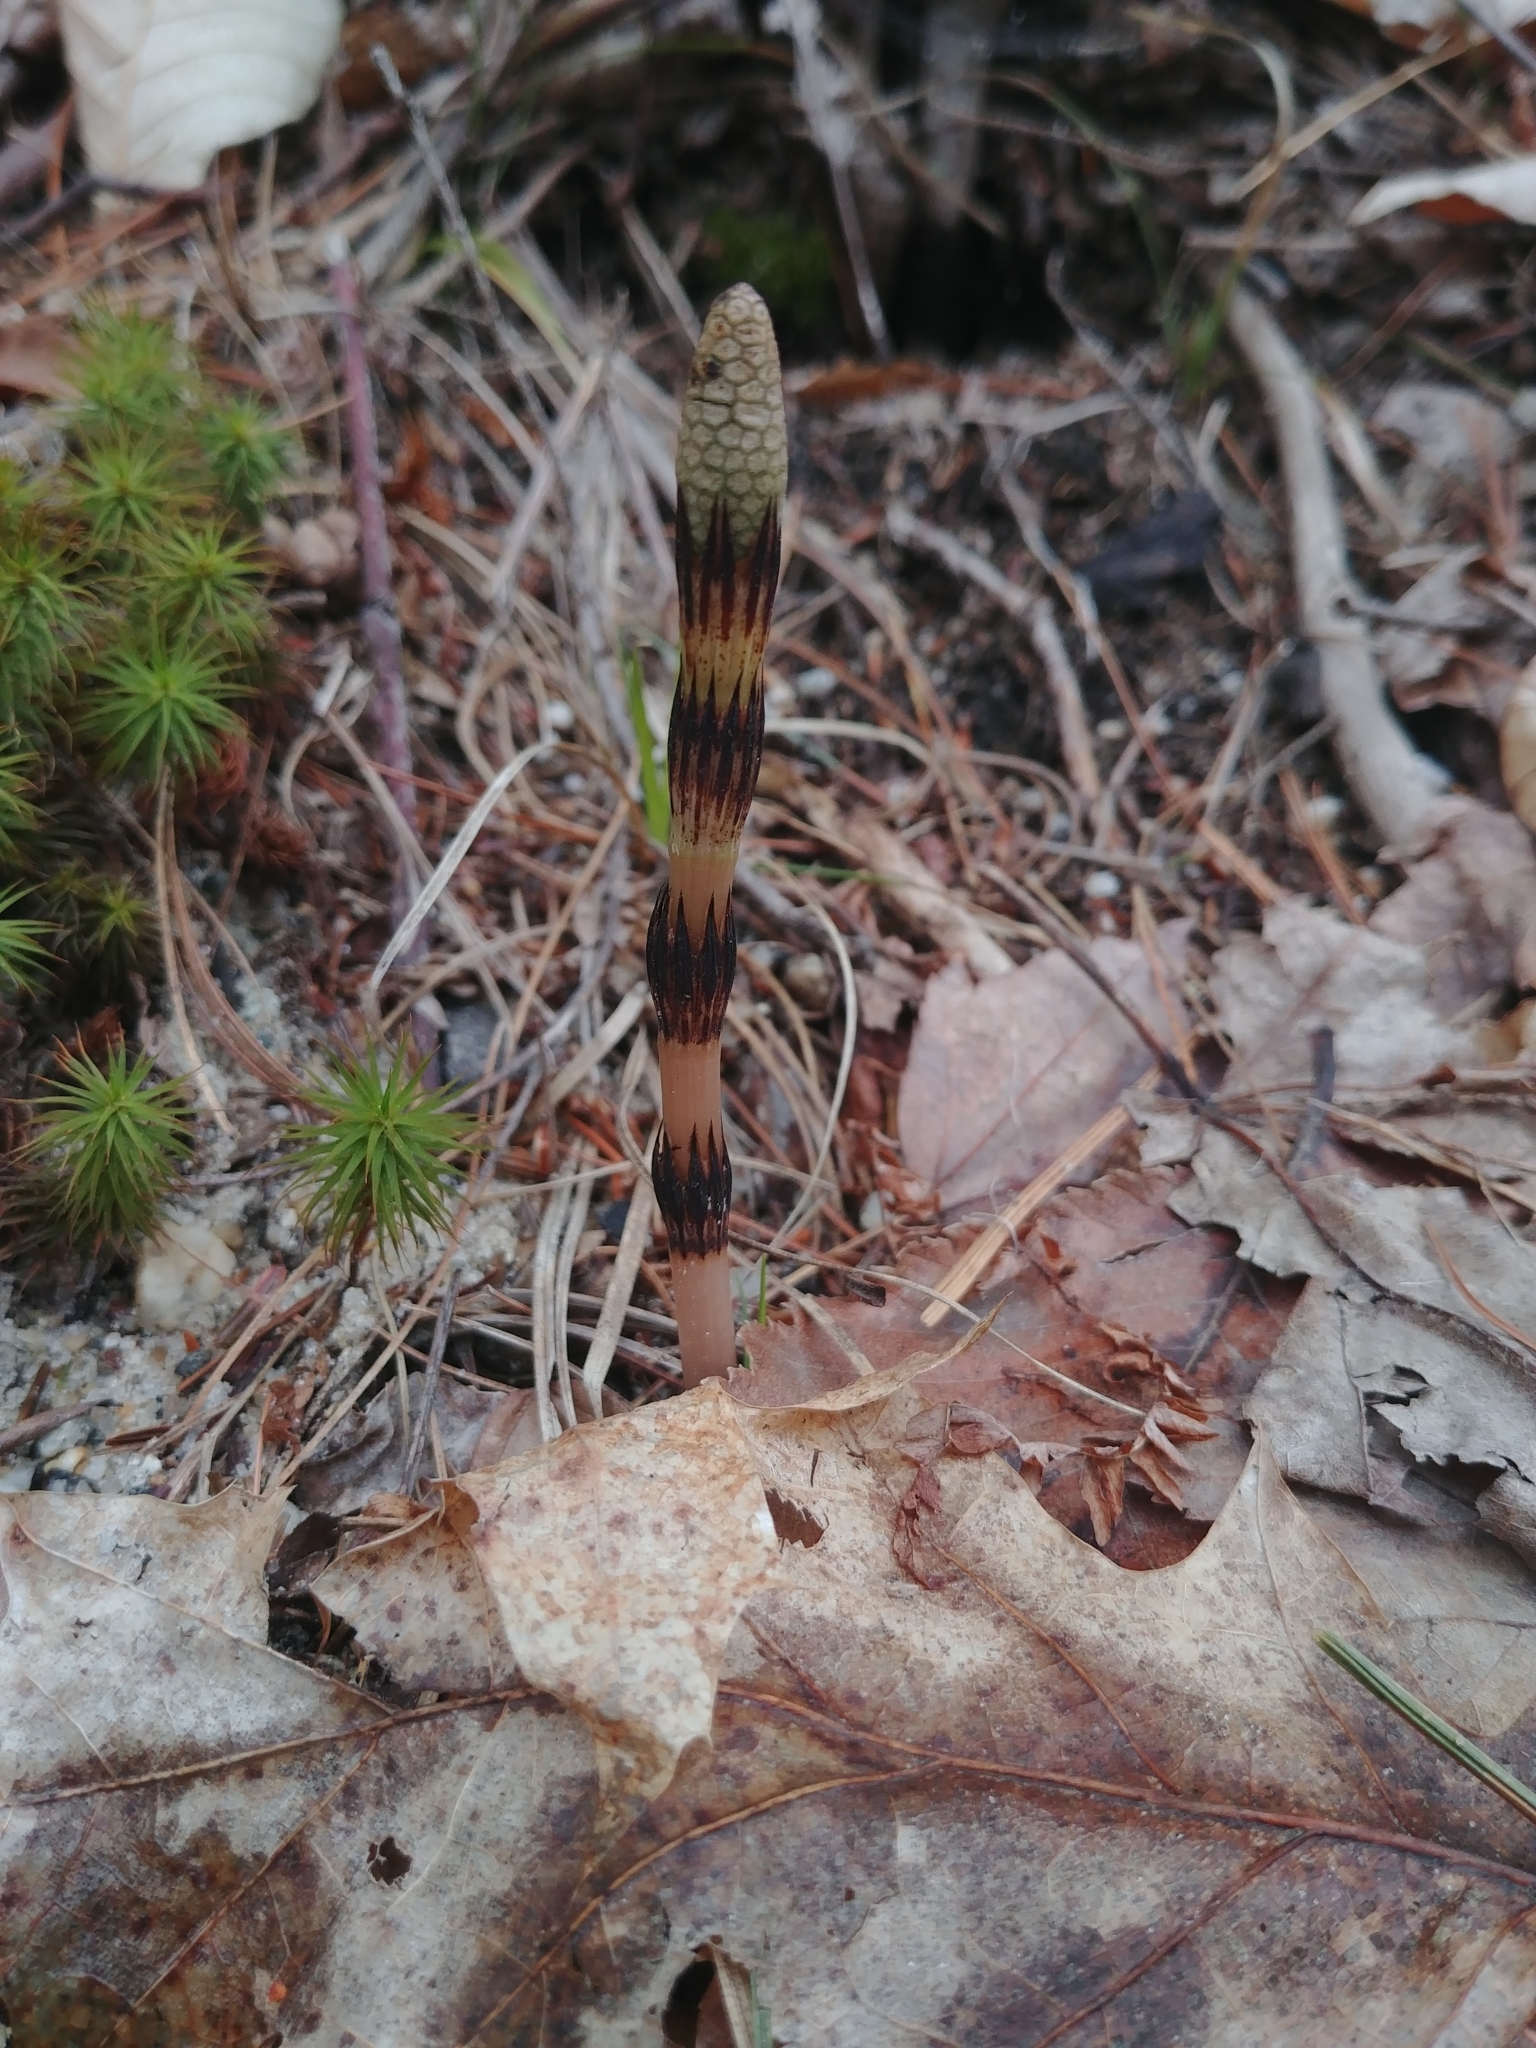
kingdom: Plantae
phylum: Tracheophyta
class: Polypodiopsida
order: Equisetales
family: Equisetaceae
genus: Equisetum
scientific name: Equisetum hyemale
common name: Rough horsetail
